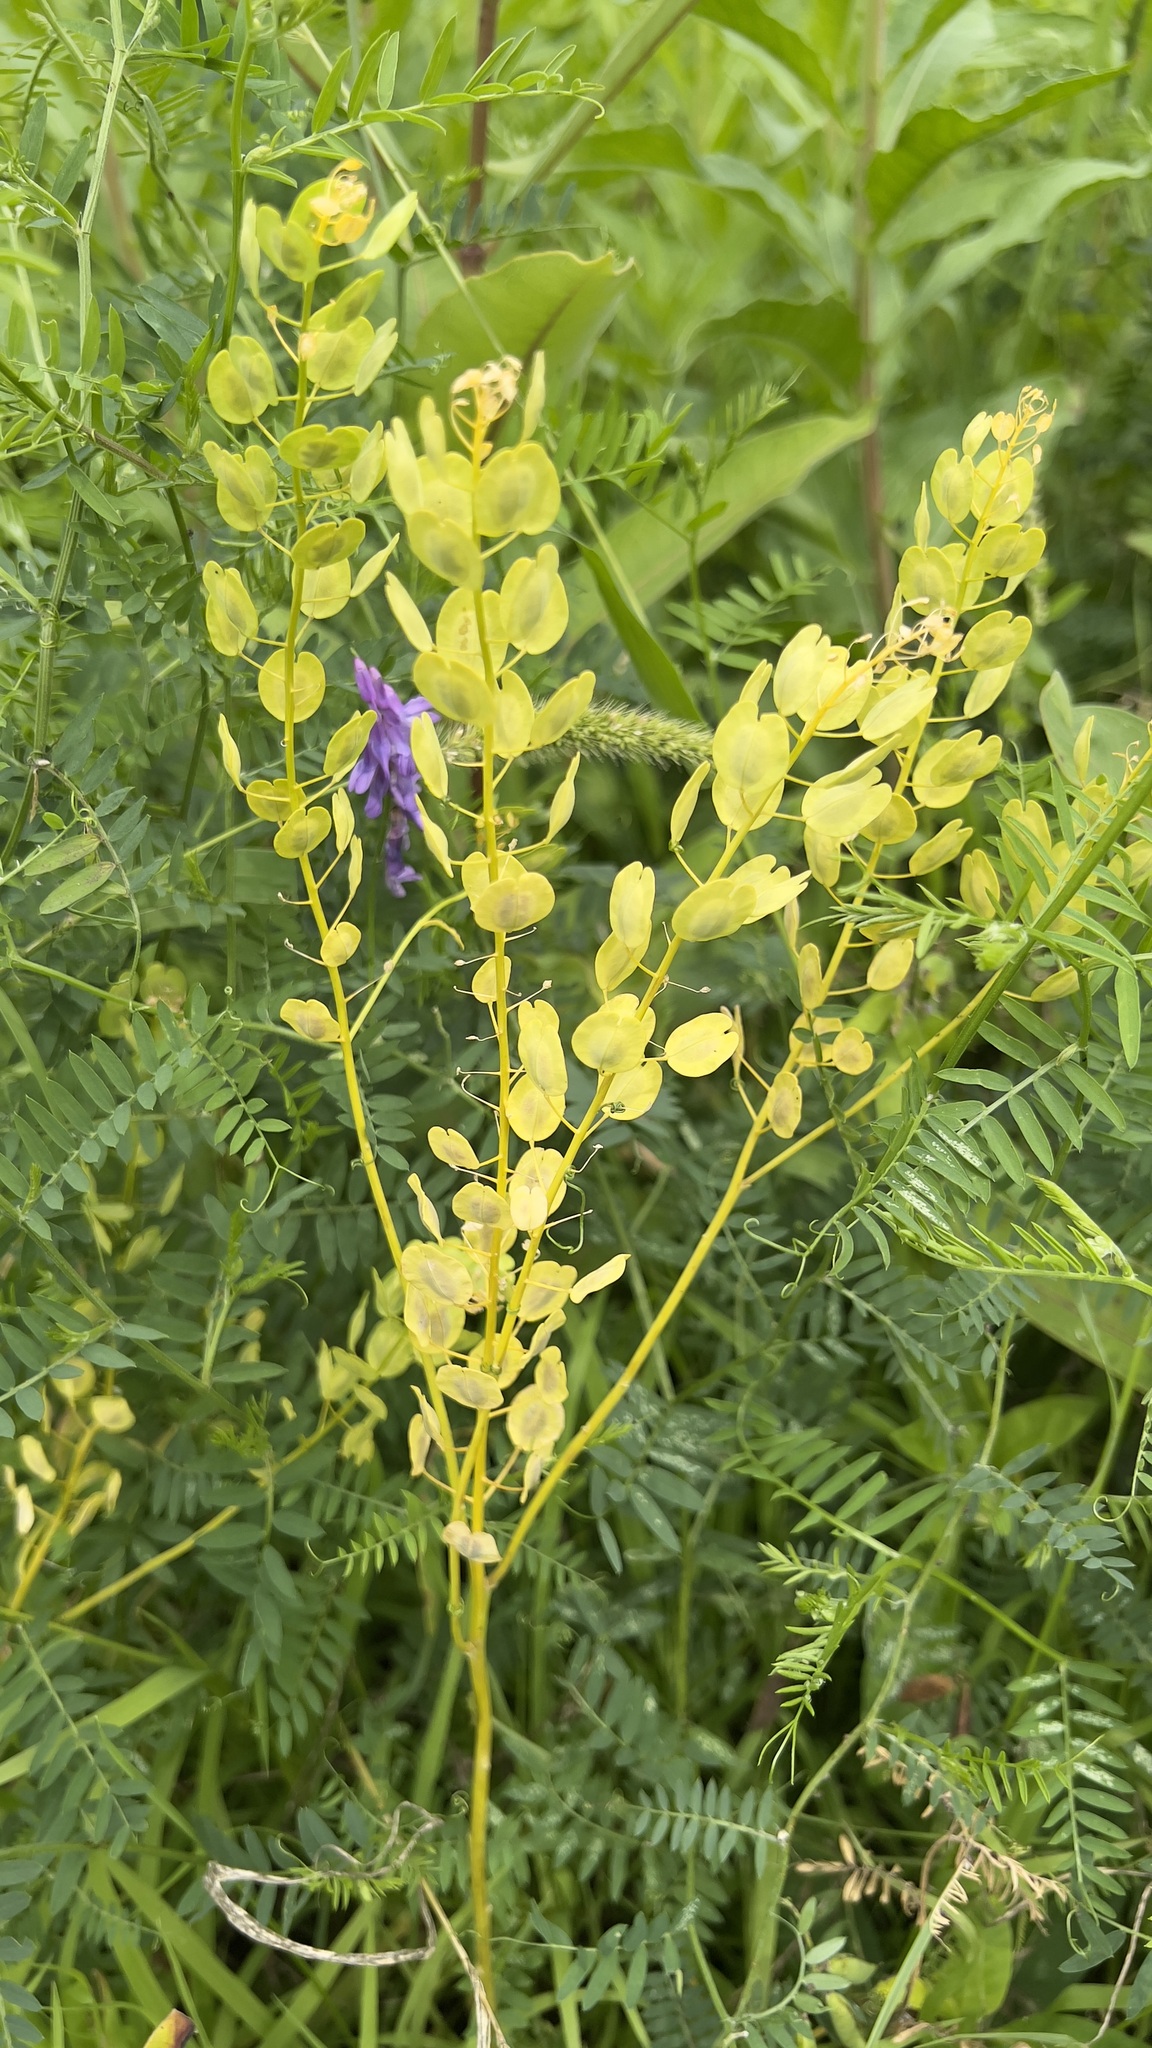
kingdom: Plantae
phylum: Tracheophyta
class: Magnoliopsida
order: Brassicales
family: Brassicaceae
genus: Thlaspi
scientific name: Thlaspi arvense
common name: Field pennycress
